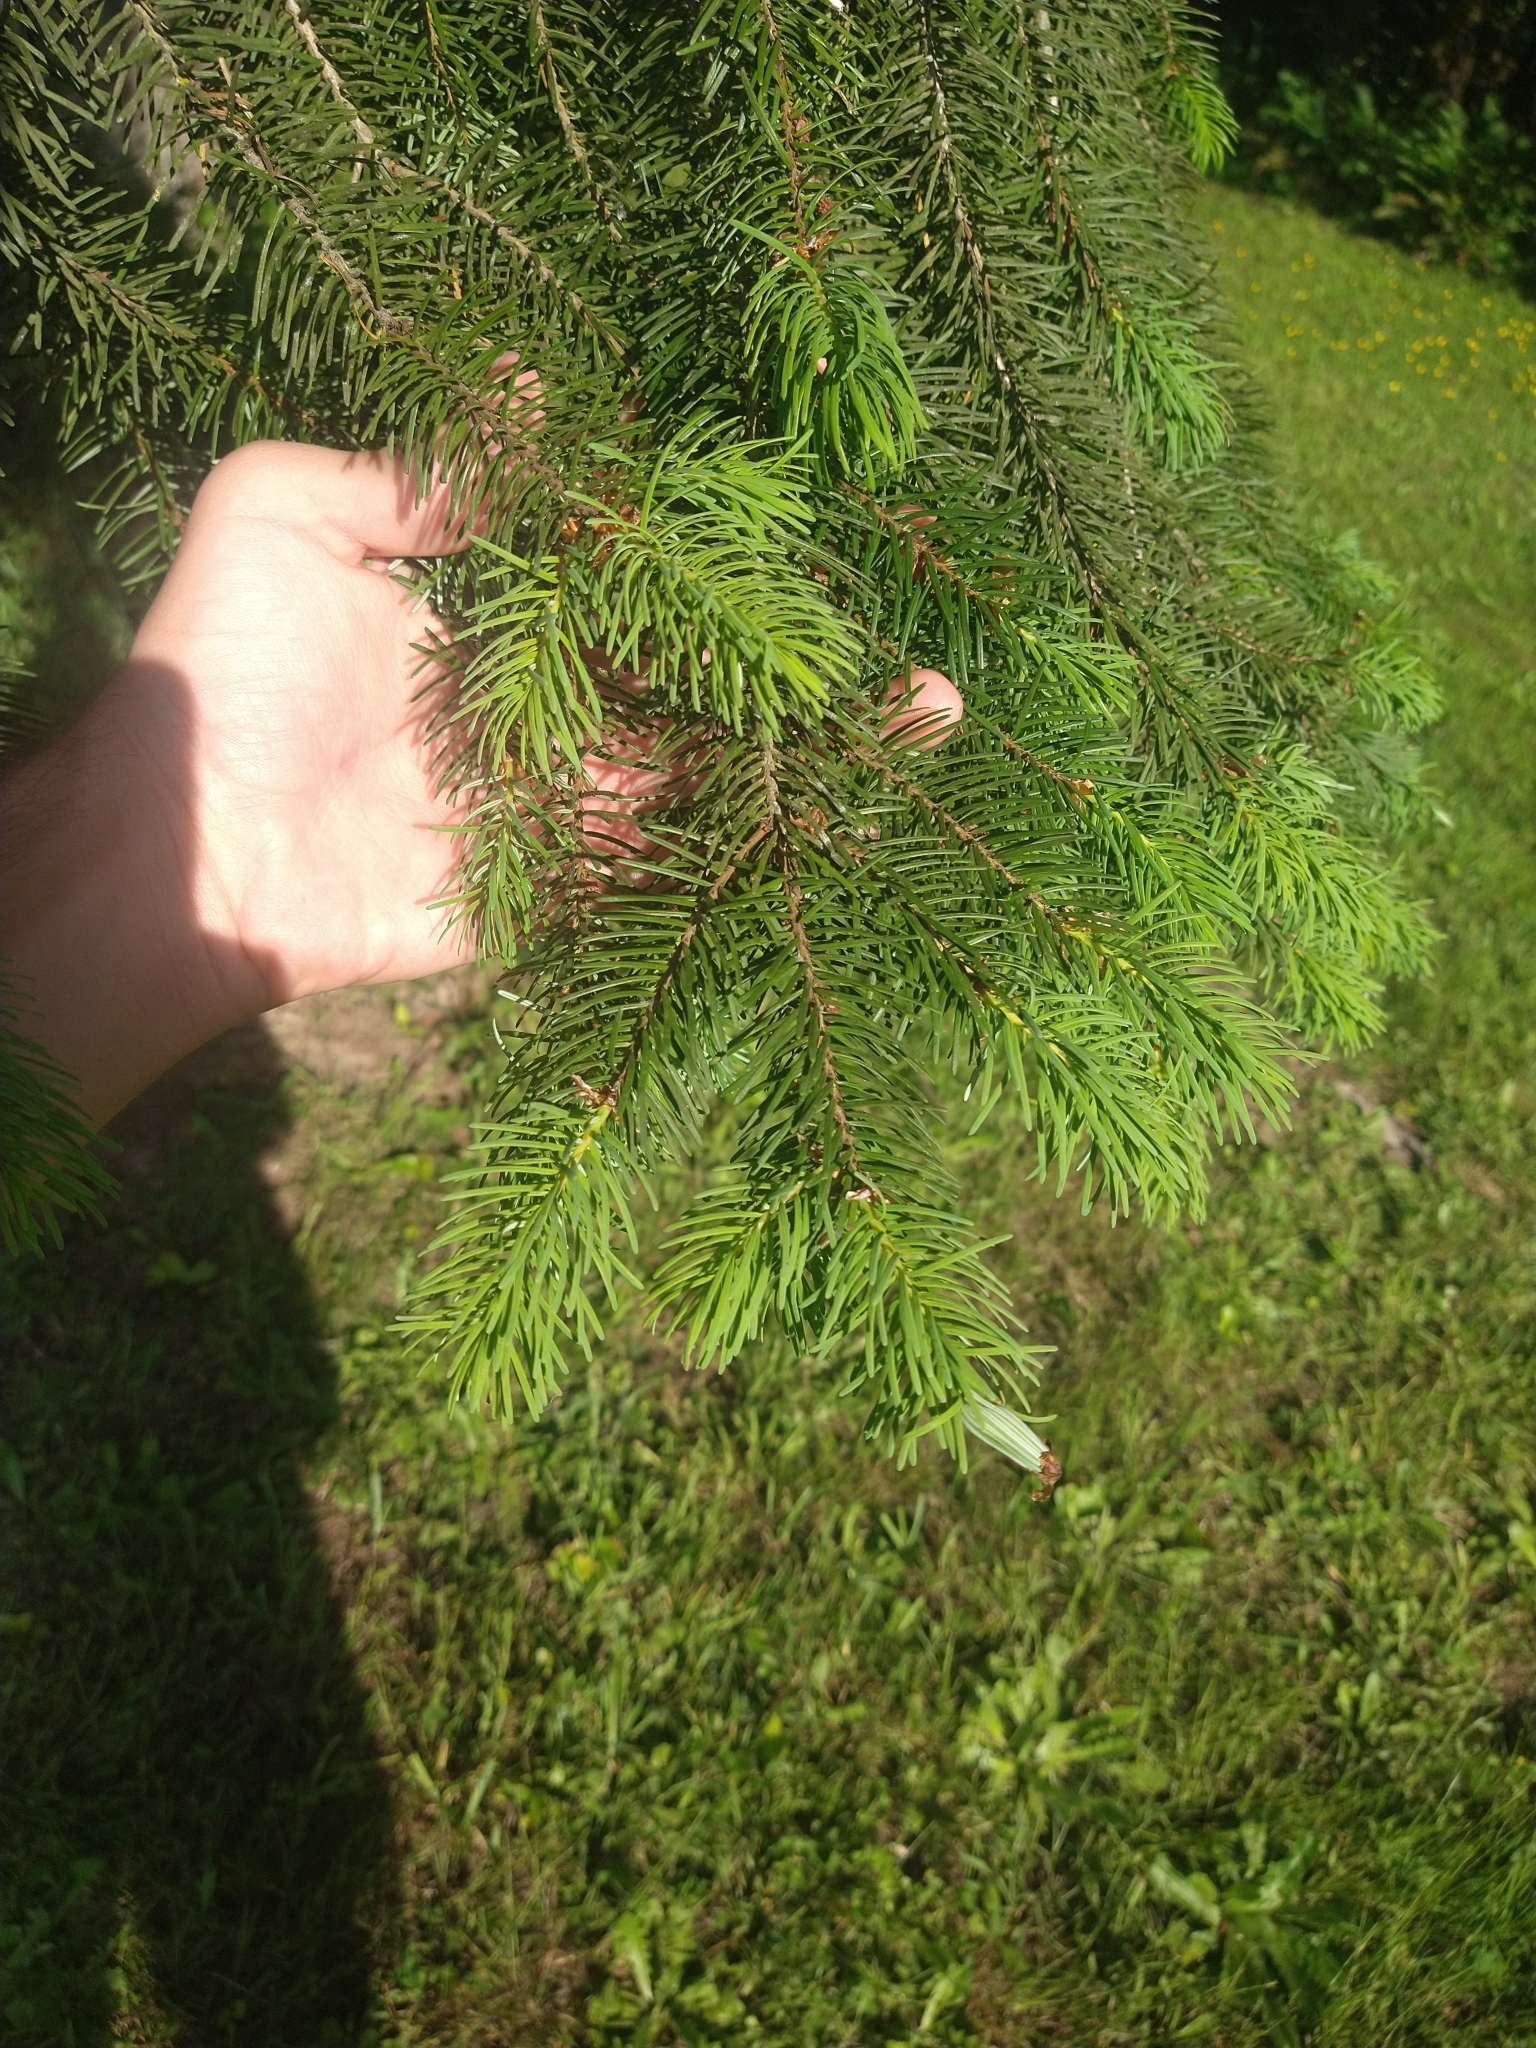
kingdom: Plantae
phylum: Tracheophyta
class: Pinopsida
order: Pinales
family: Pinaceae
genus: Pseudotsuga
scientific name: Pseudotsuga menziesii
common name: Douglas fir
